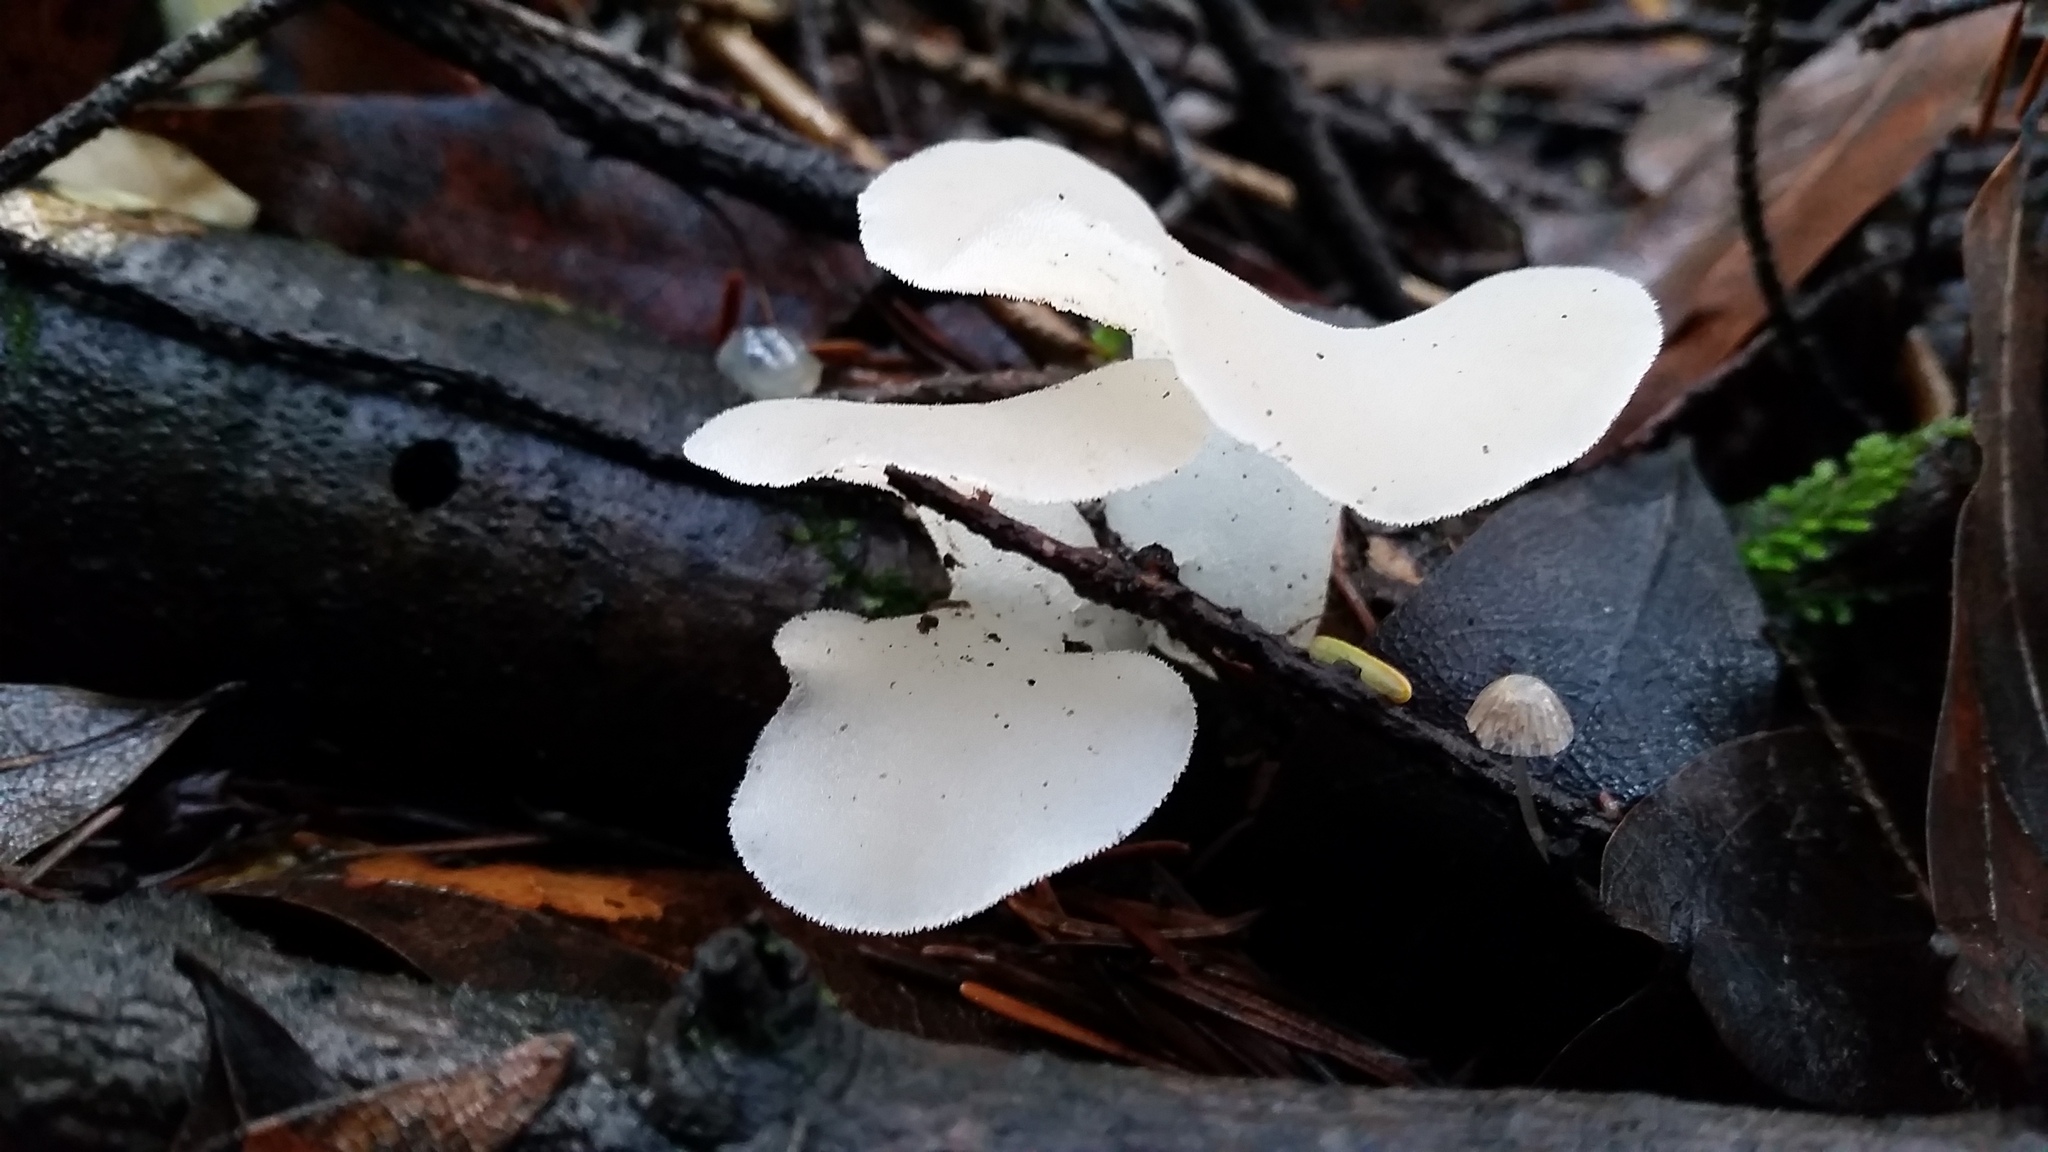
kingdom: Fungi
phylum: Basidiomycota
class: Agaricomycetes
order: Auriculariales
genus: Pseudohydnum
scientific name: Pseudohydnum gelatinosum
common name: Jelly tongue
